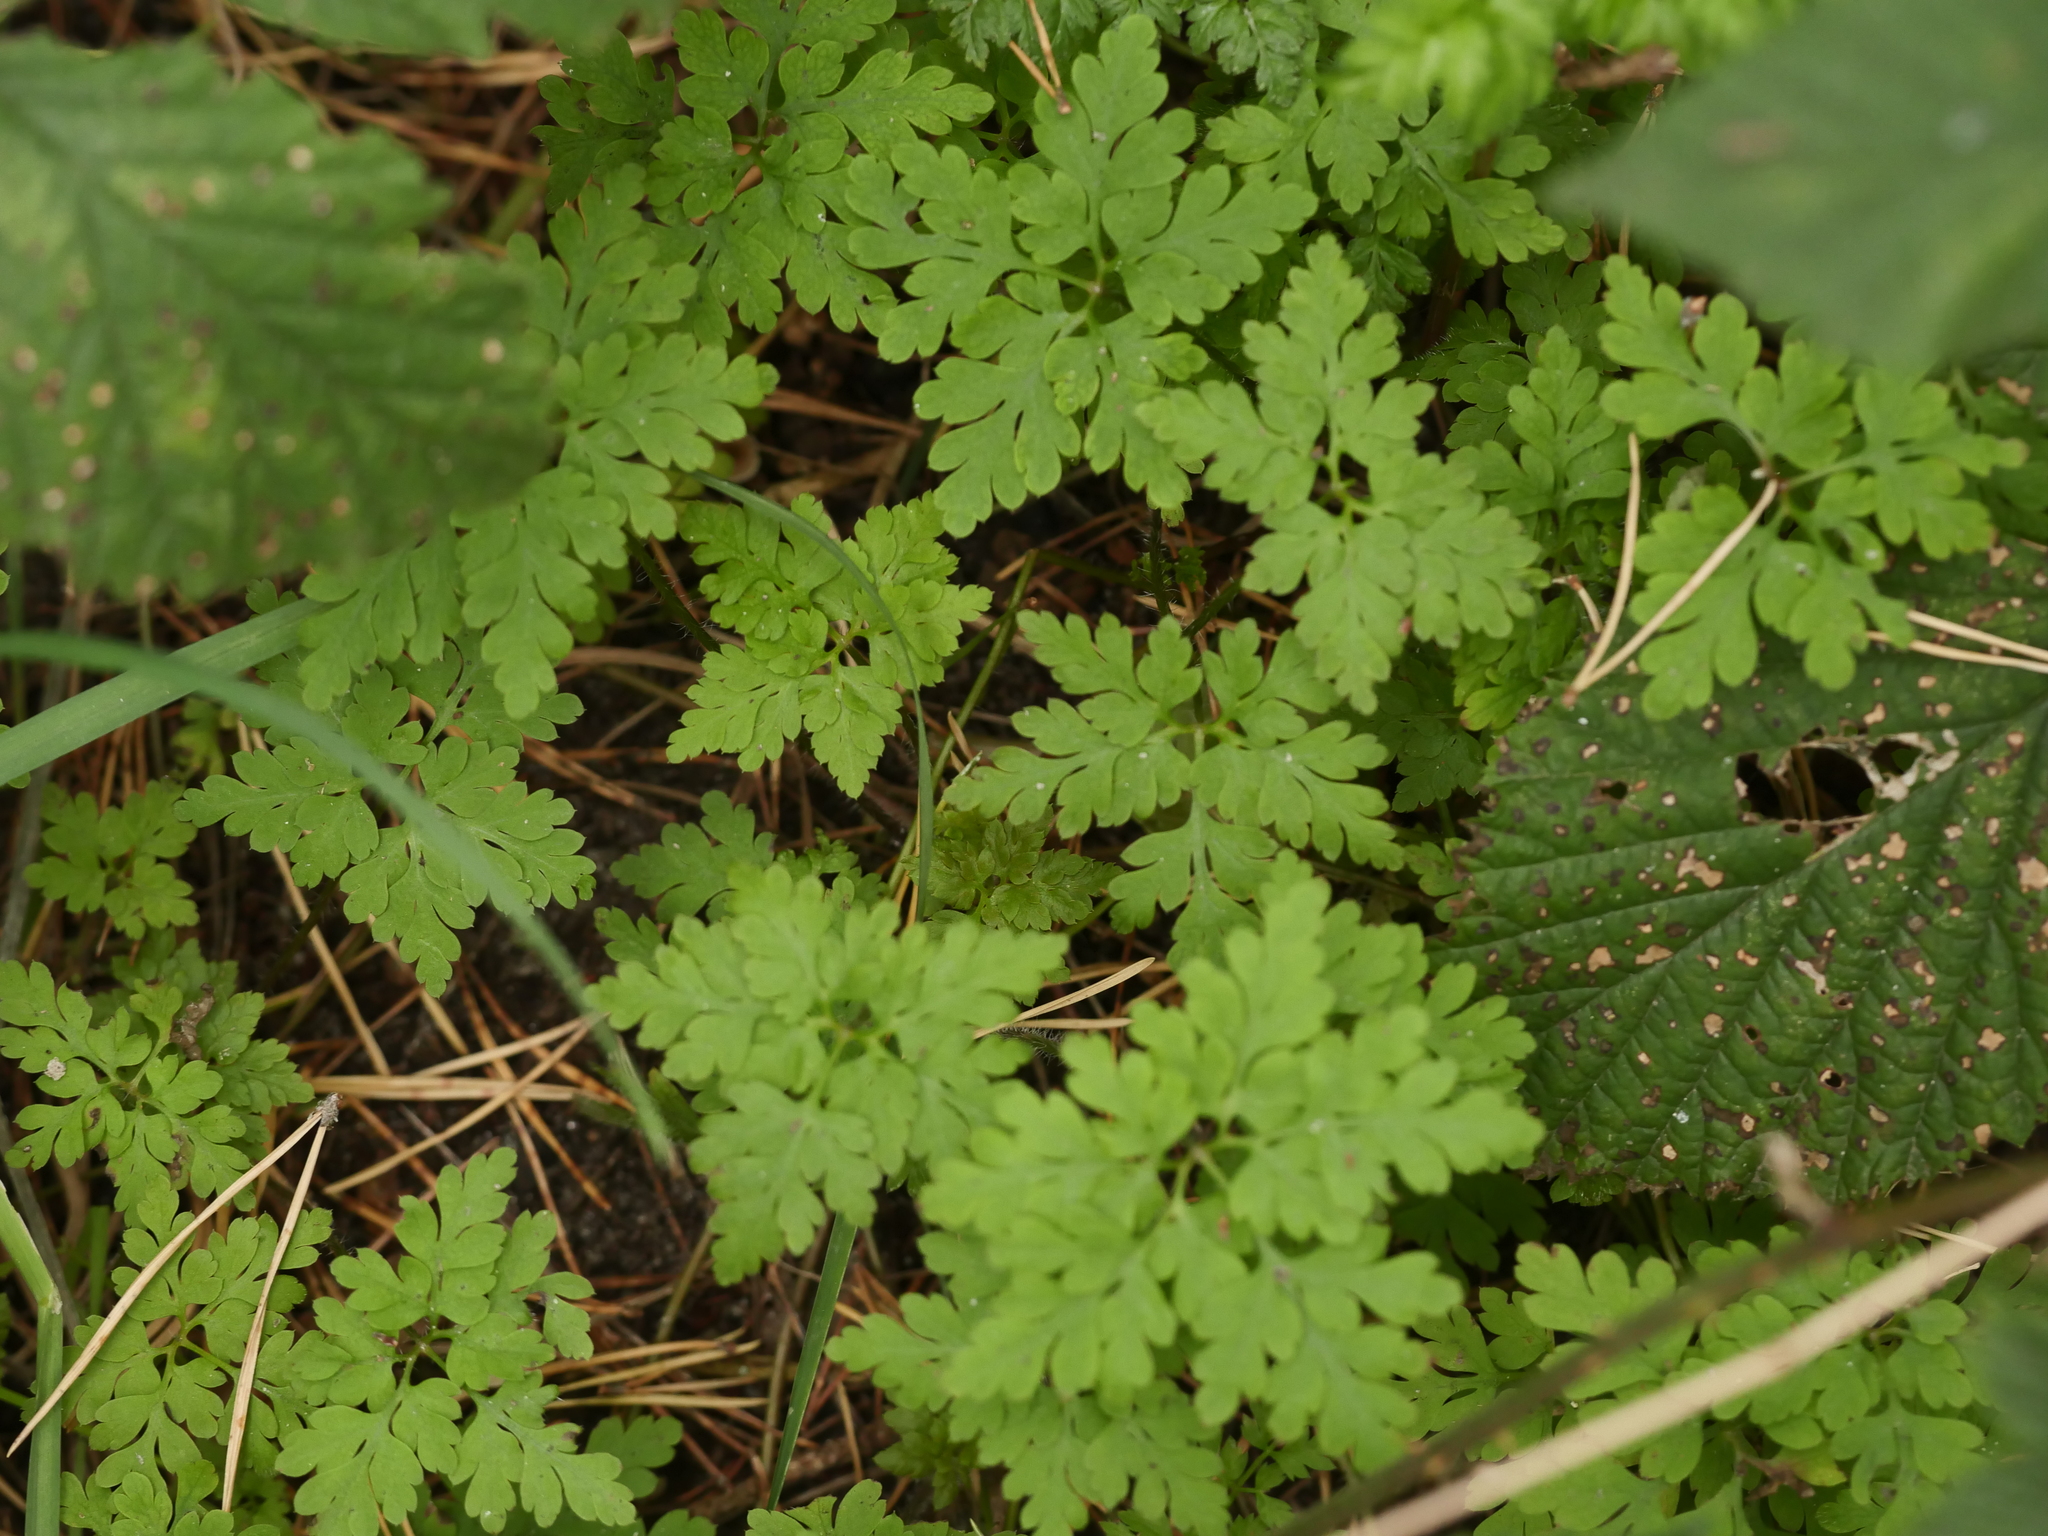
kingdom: Plantae
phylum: Tracheophyta
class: Magnoliopsida
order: Geraniales
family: Geraniaceae
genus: Geranium
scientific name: Geranium robertianum
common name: Herb-robert
